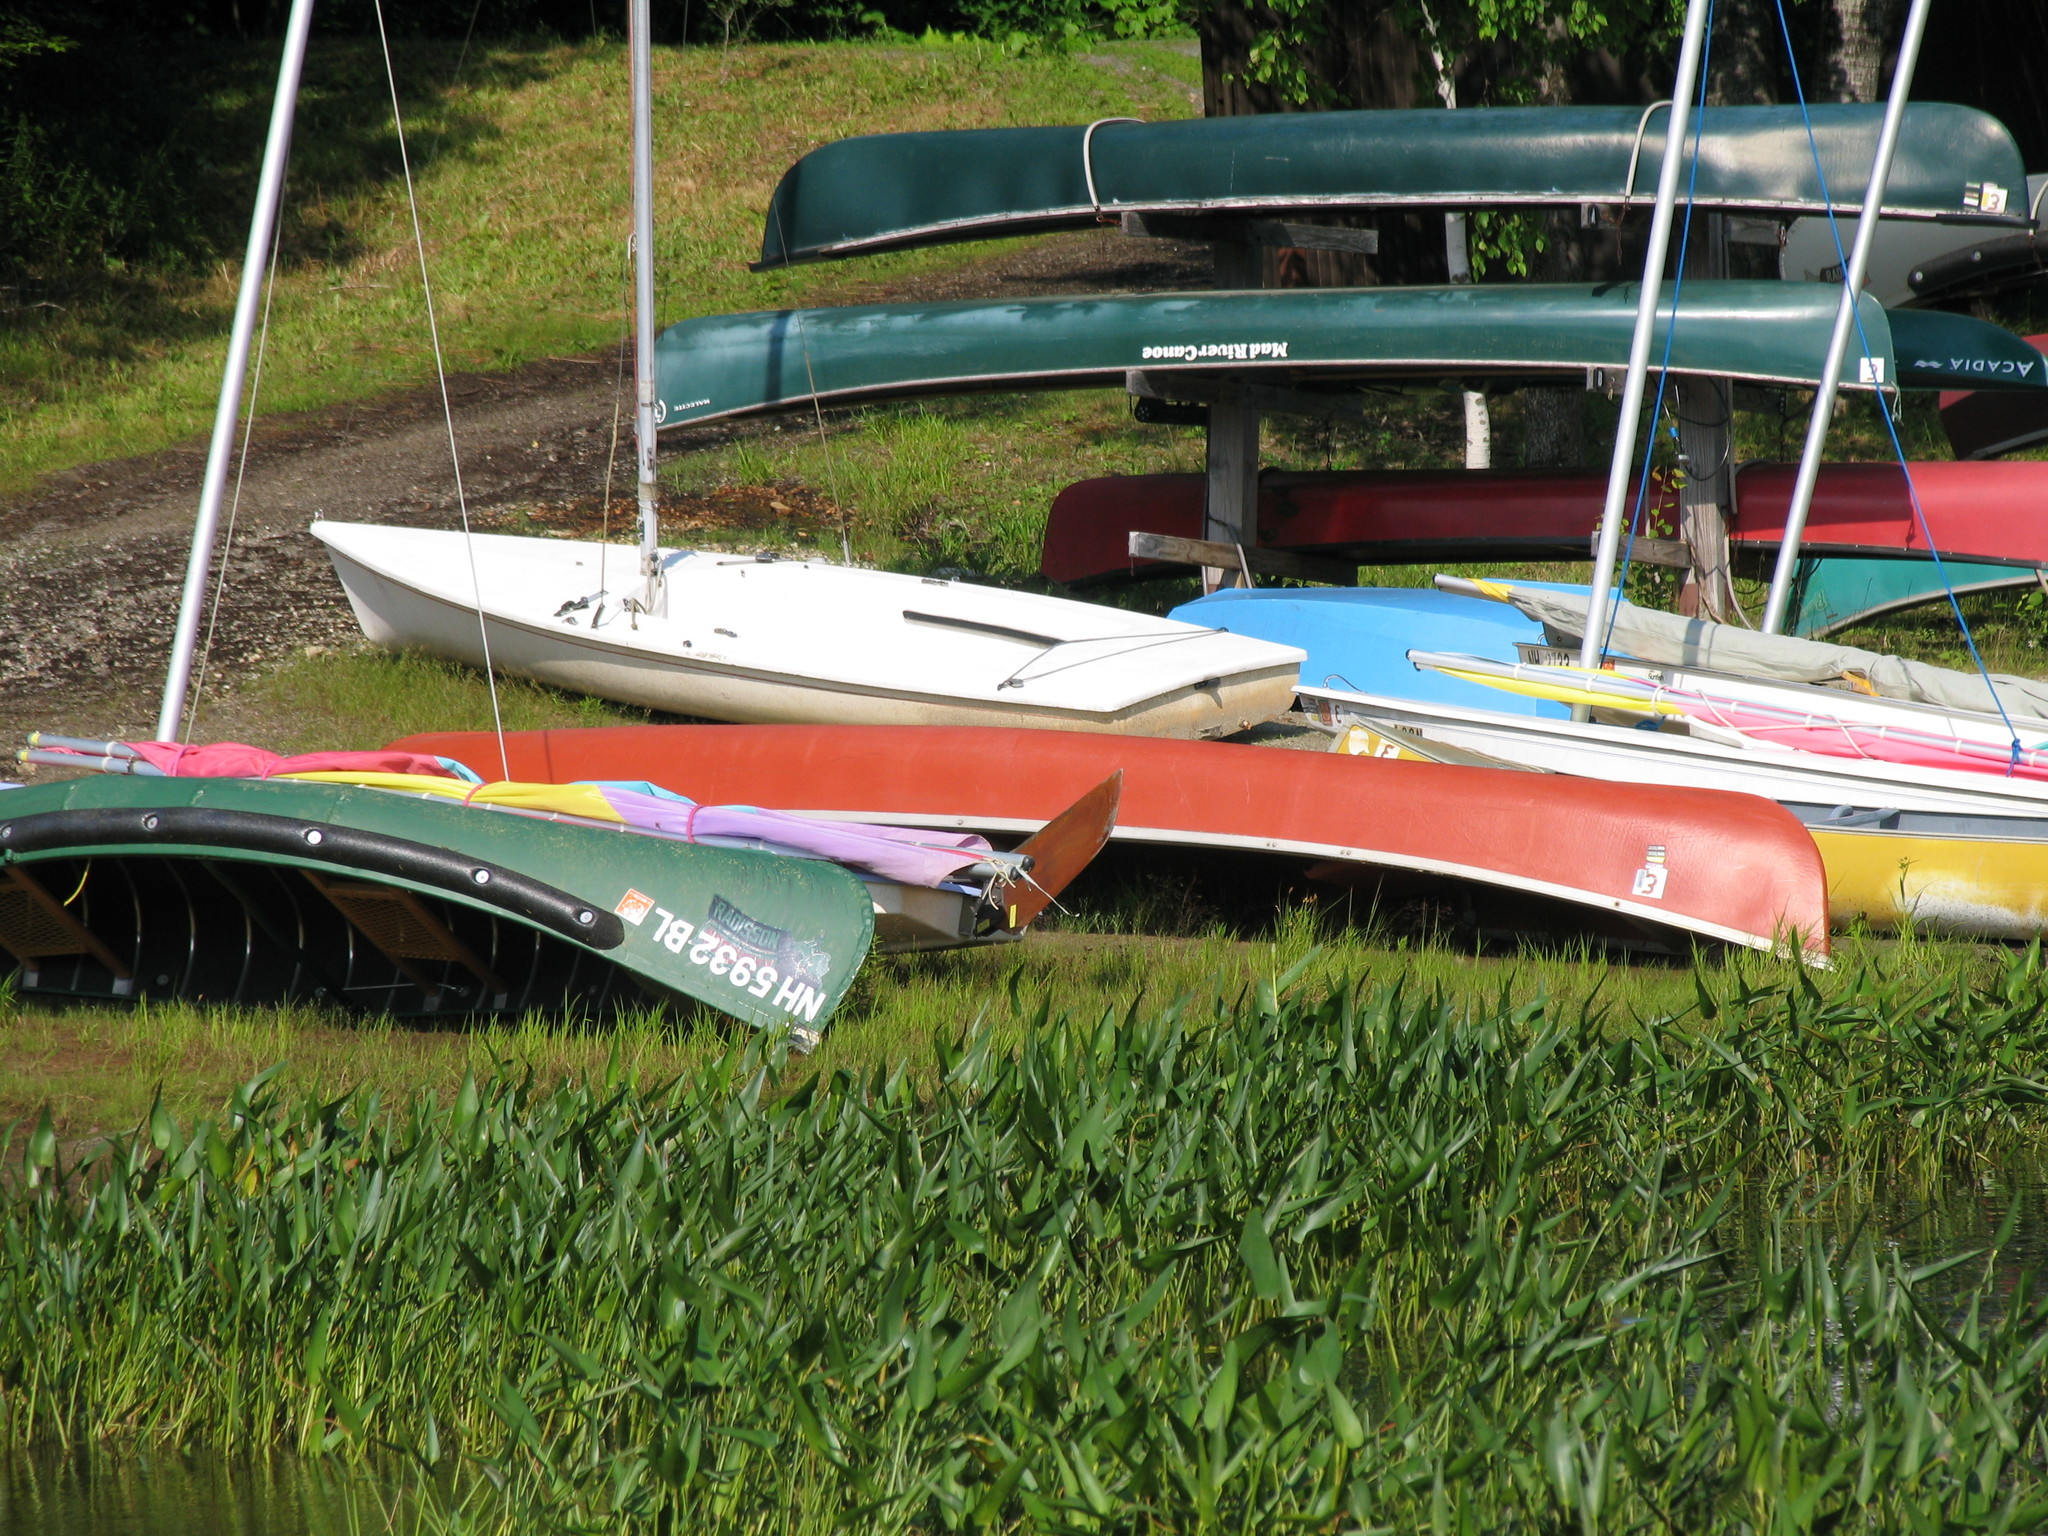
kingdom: Plantae
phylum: Tracheophyta
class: Liliopsida
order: Commelinales
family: Pontederiaceae
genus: Pontederia
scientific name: Pontederia cordata
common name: Pickerelweed
